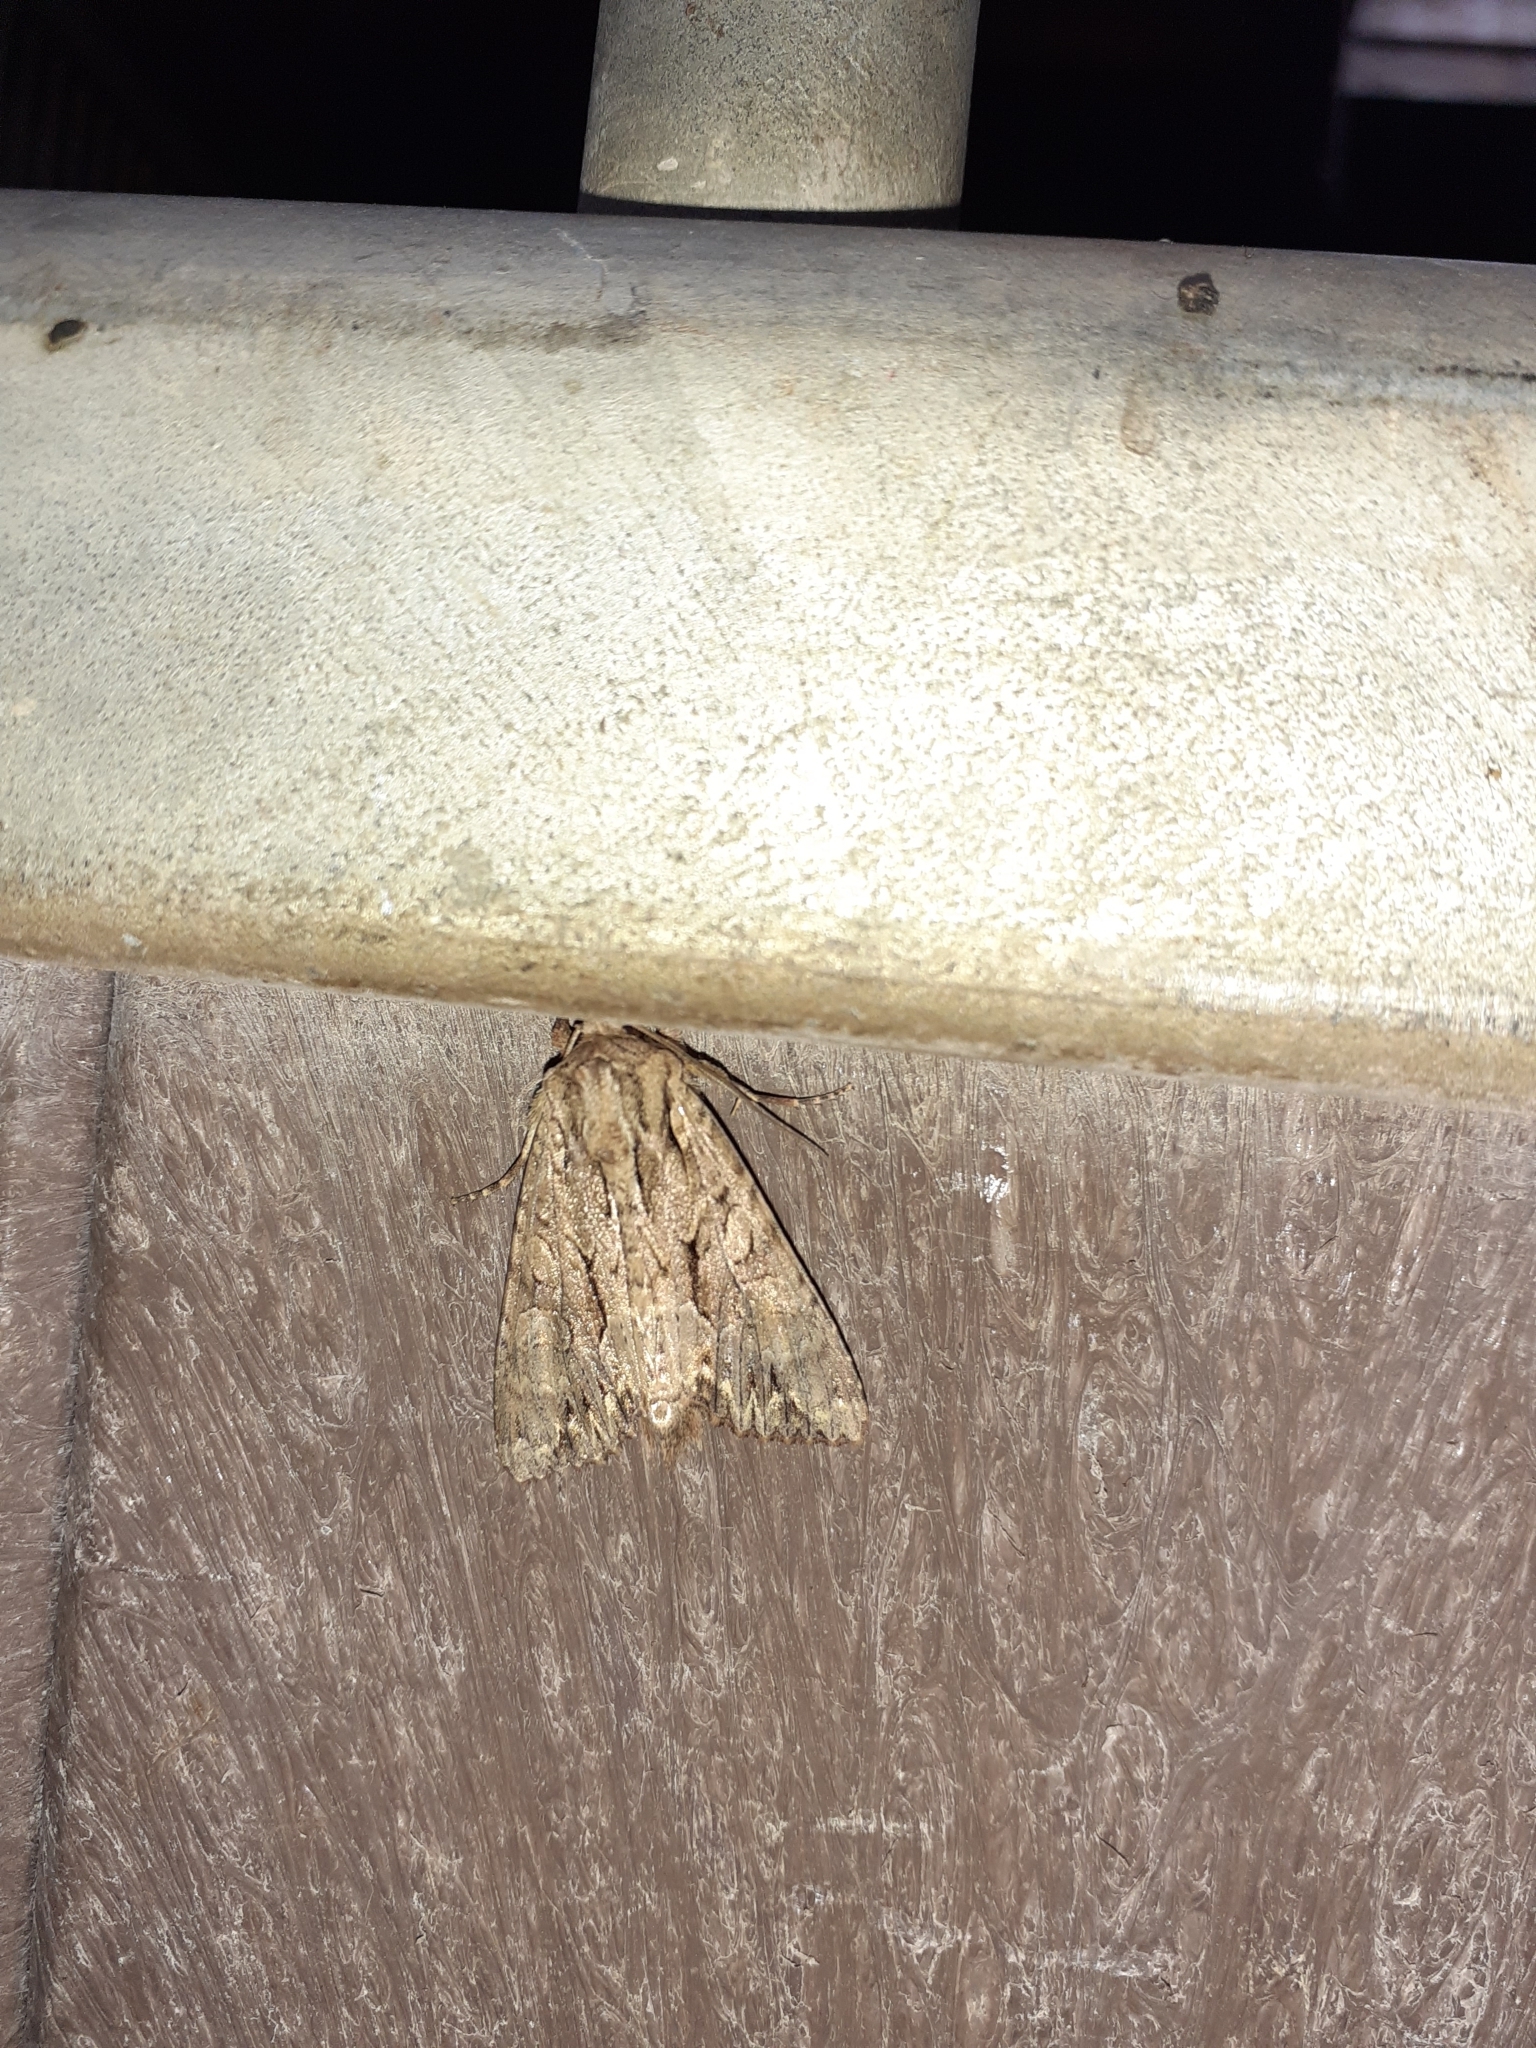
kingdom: Animalia
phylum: Arthropoda
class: Insecta
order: Lepidoptera
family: Noctuidae
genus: Apamea
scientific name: Apamea monoglypha
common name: Dark arches
